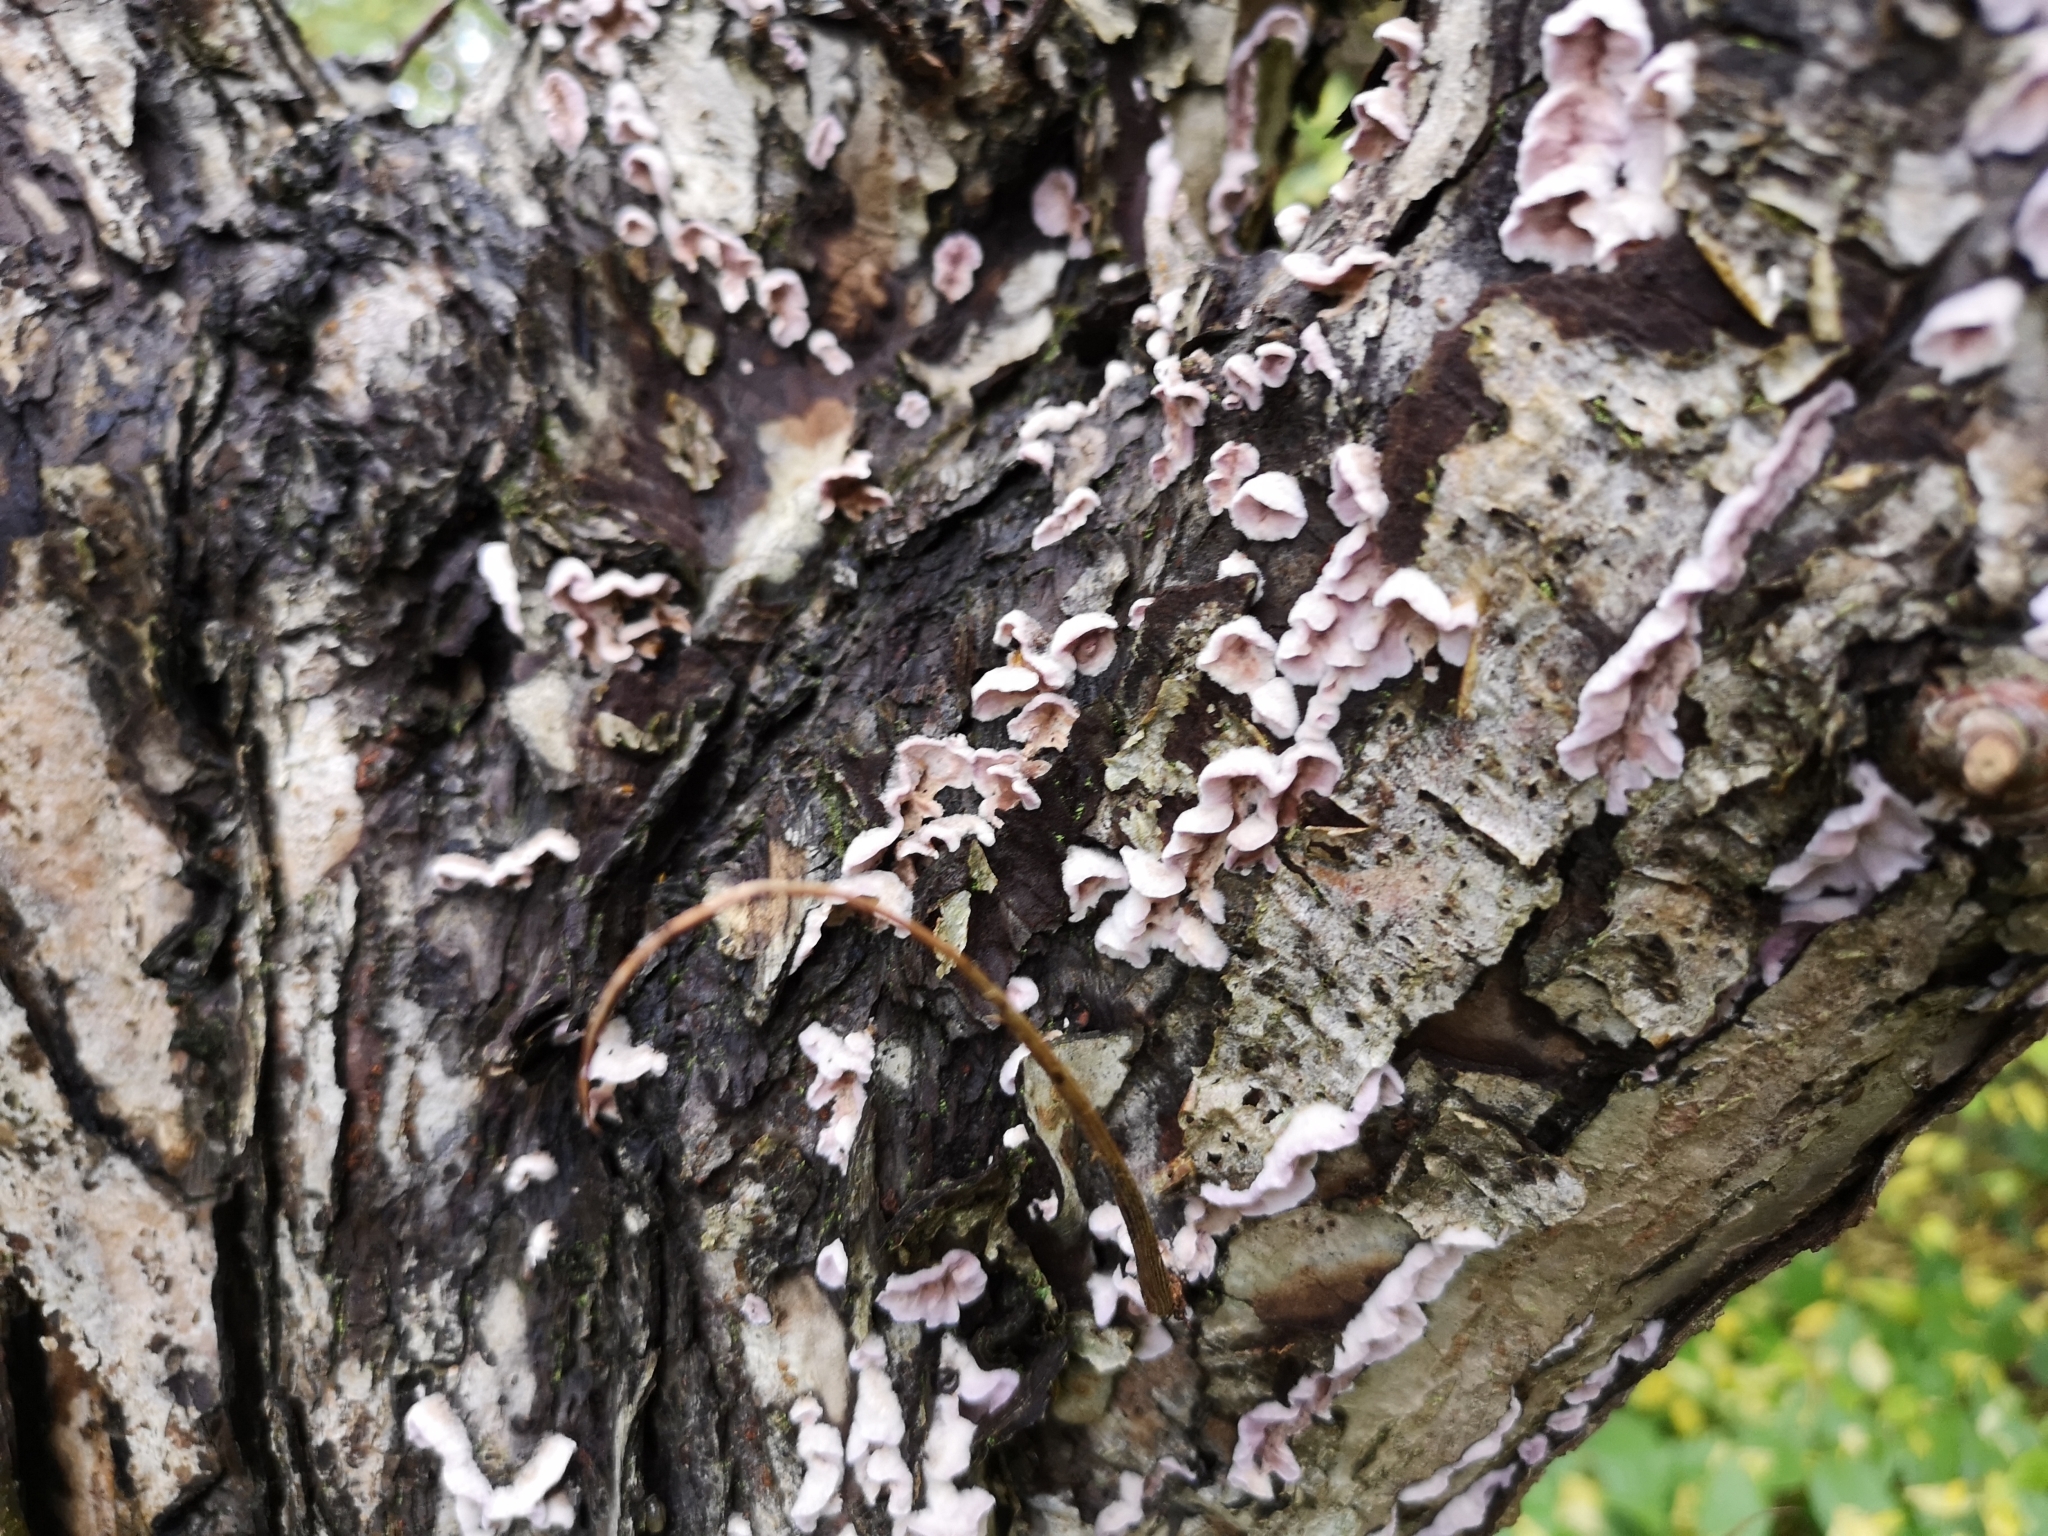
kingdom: Fungi
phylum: Basidiomycota
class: Agaricomycetes
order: Agaricales
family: Cyphellaceae
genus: Chondrostereum
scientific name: Chondrostereum purpureum
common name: Silver leaf disease
